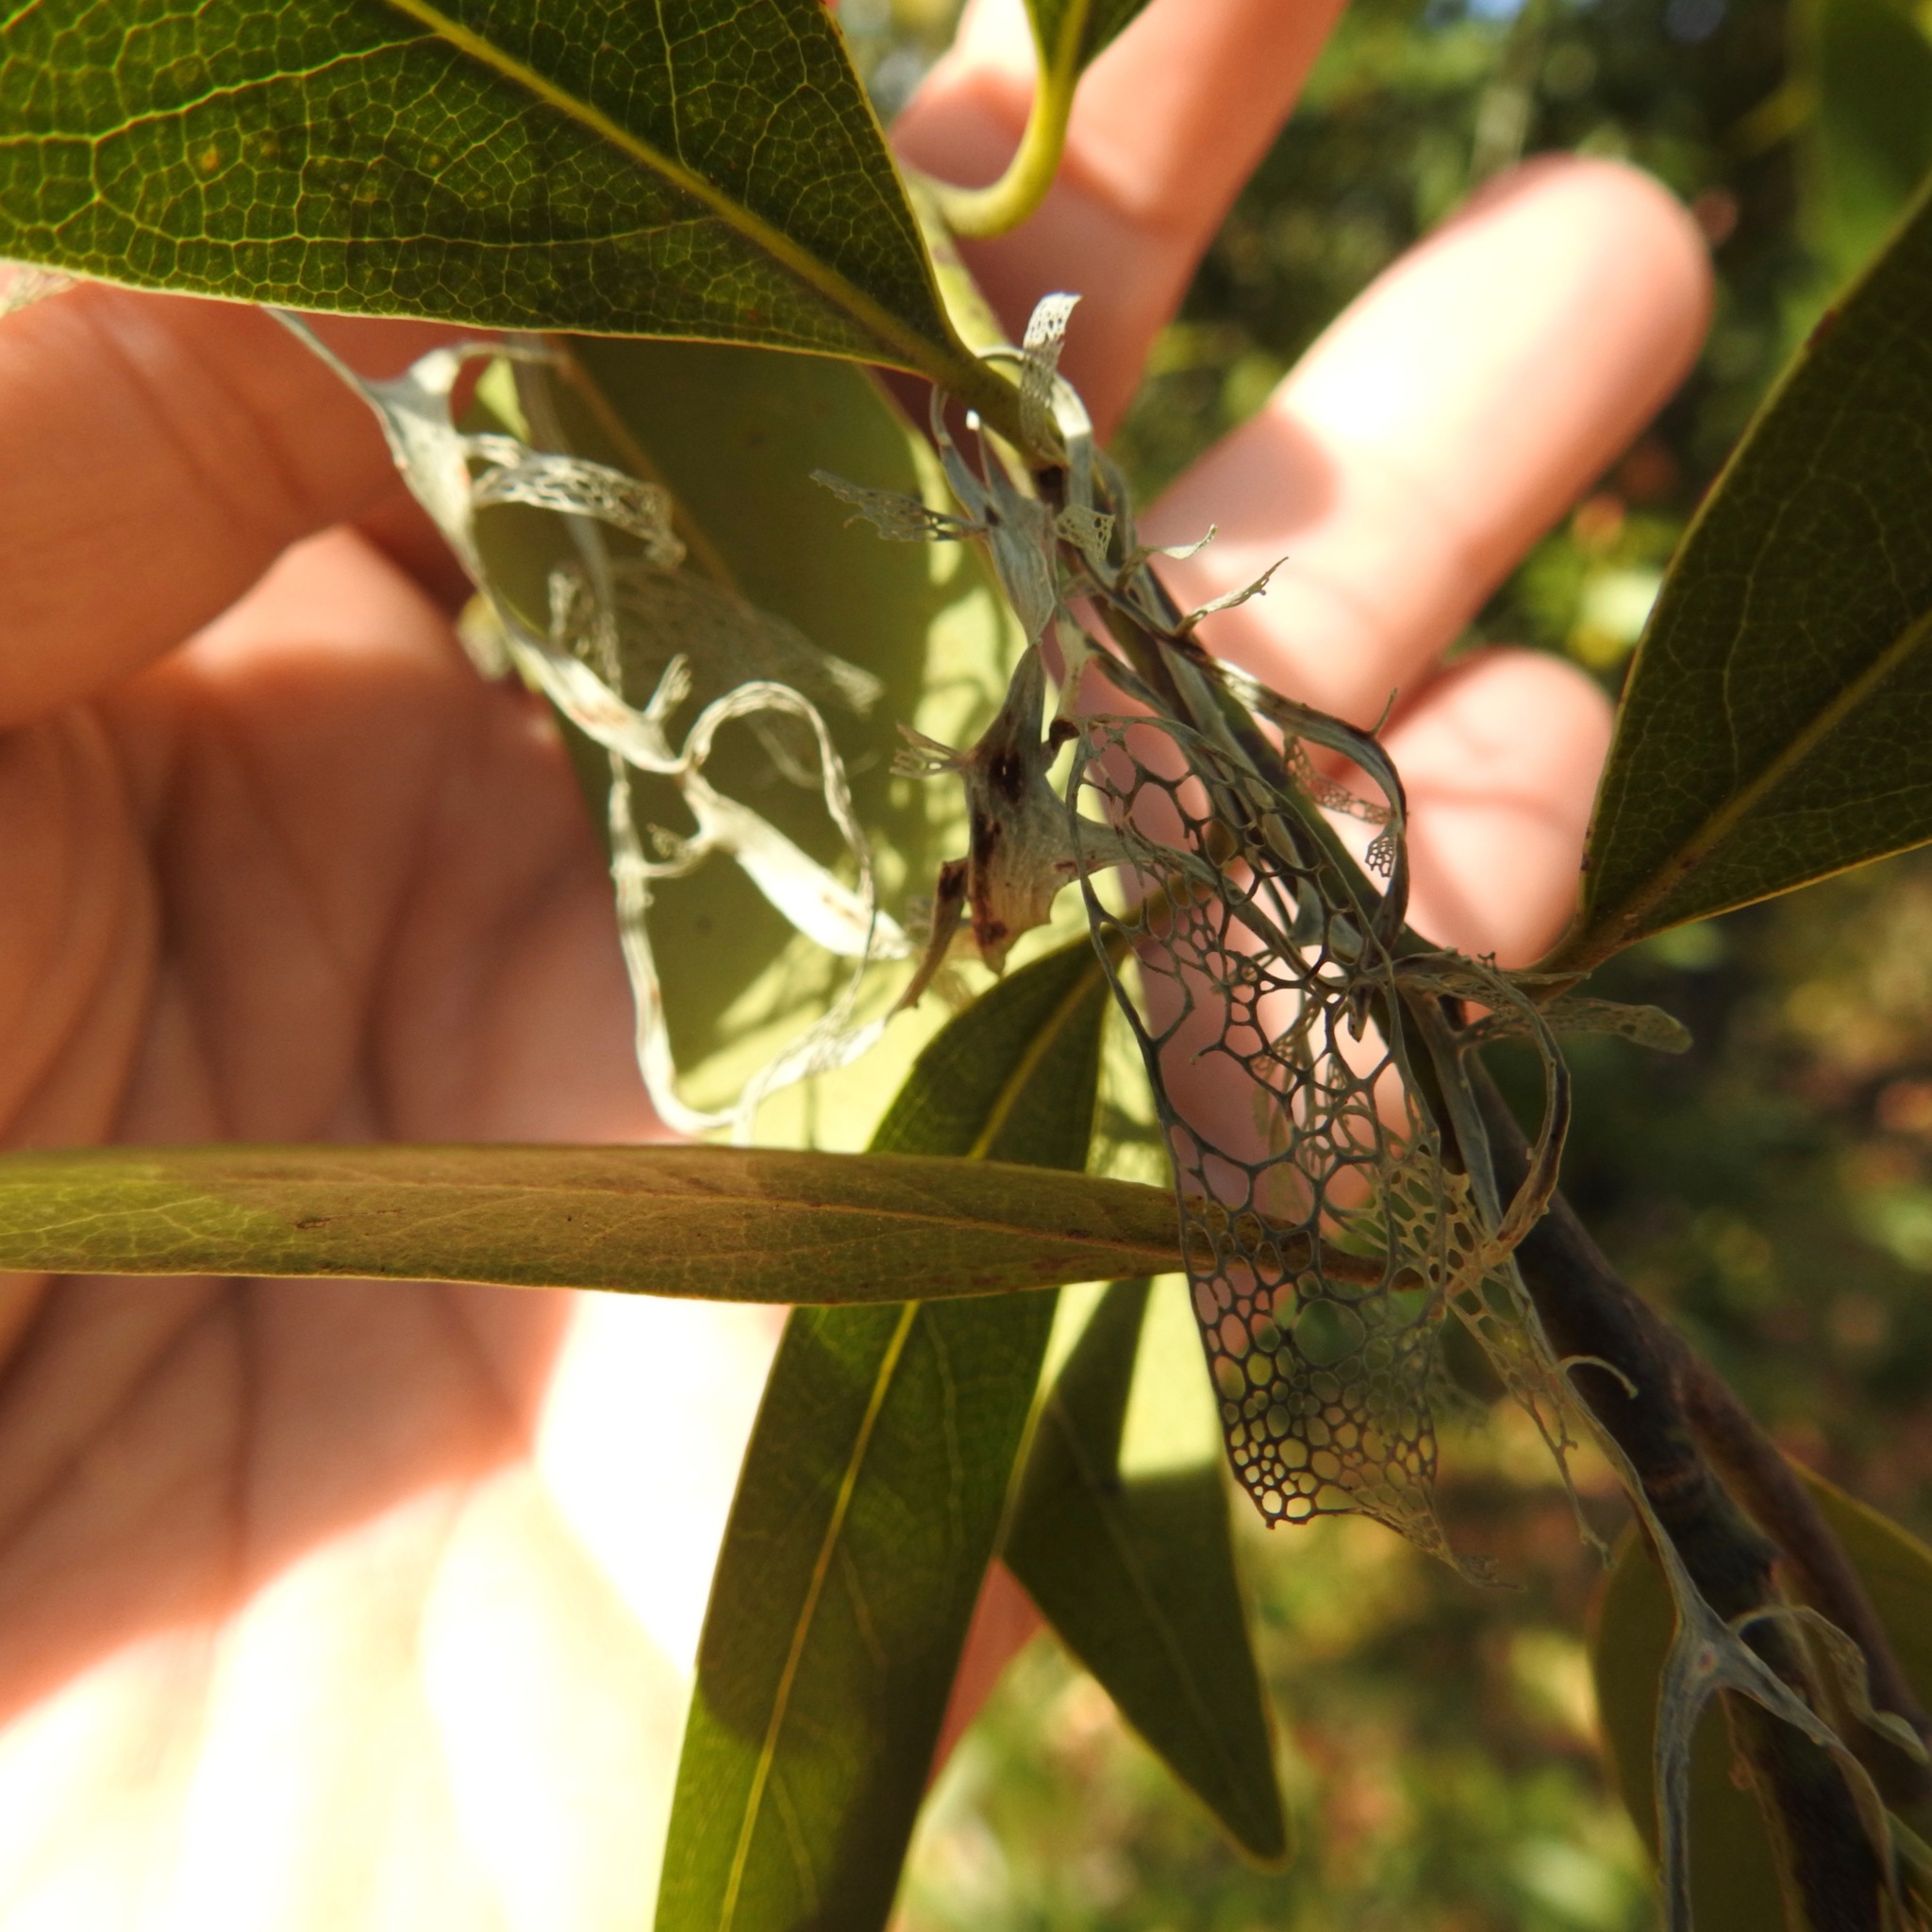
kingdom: Fungi
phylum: Ascomycota
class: Lecanoromycetes
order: Lecanorales
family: Ramalinaceae
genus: Ramalina
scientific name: Ramalina menziesii
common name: Lace lichen
